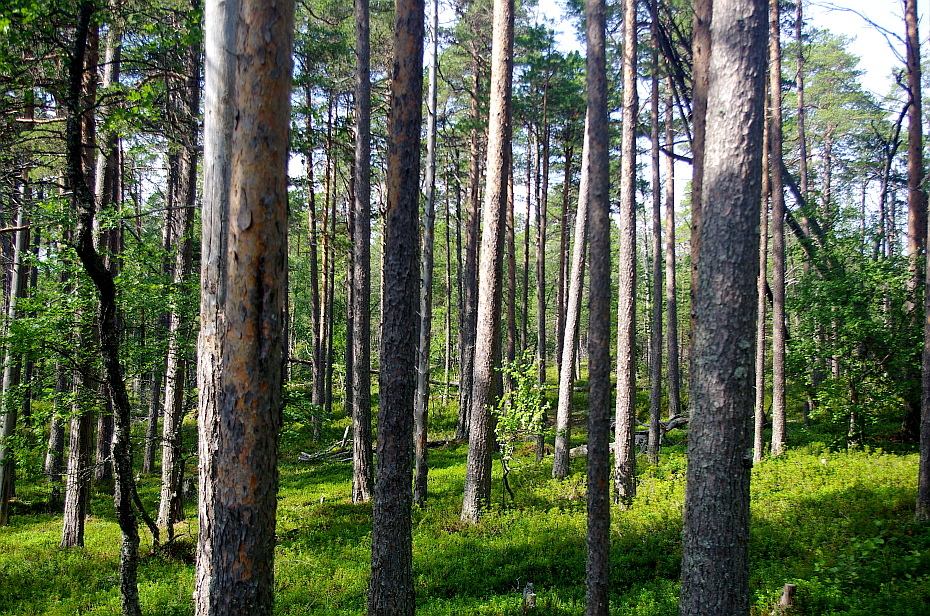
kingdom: Plantae
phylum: Tracheophyta
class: Pinopsida
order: Pinales
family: Pinaceae
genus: Pinus
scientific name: Pinus sylvestris
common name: Scots pine
